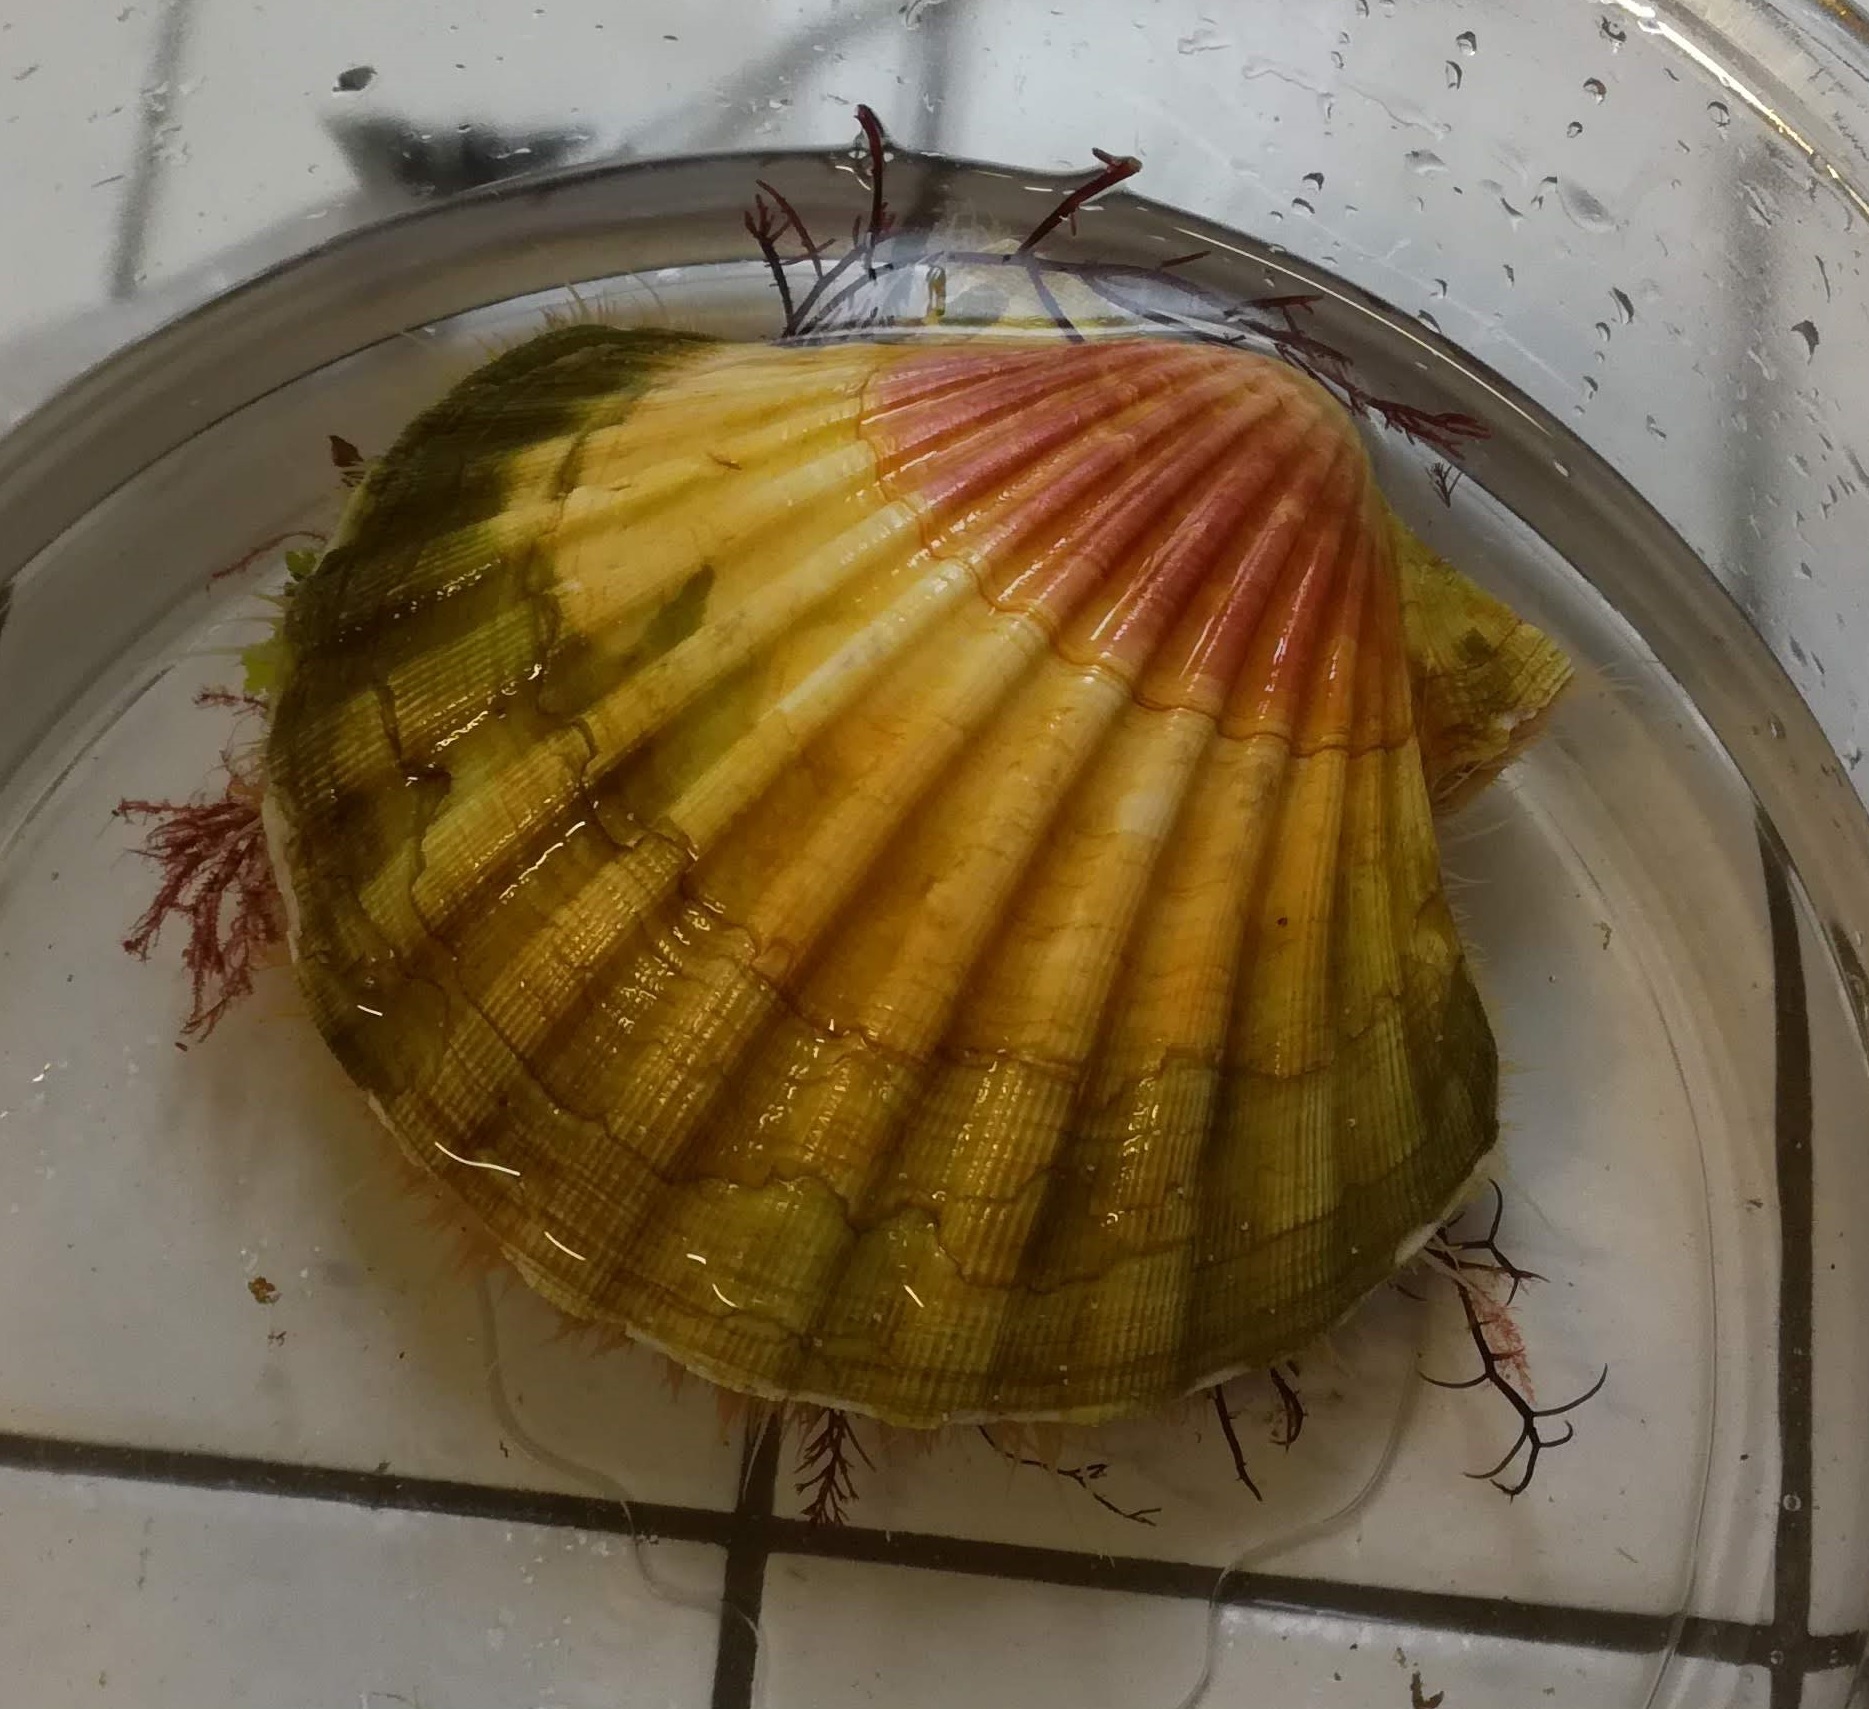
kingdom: Animalia
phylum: Mollusca
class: Bivalvia
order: Pectinida
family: Pectinidae
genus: Pecten
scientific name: Pecten maximus
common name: Great scallop
